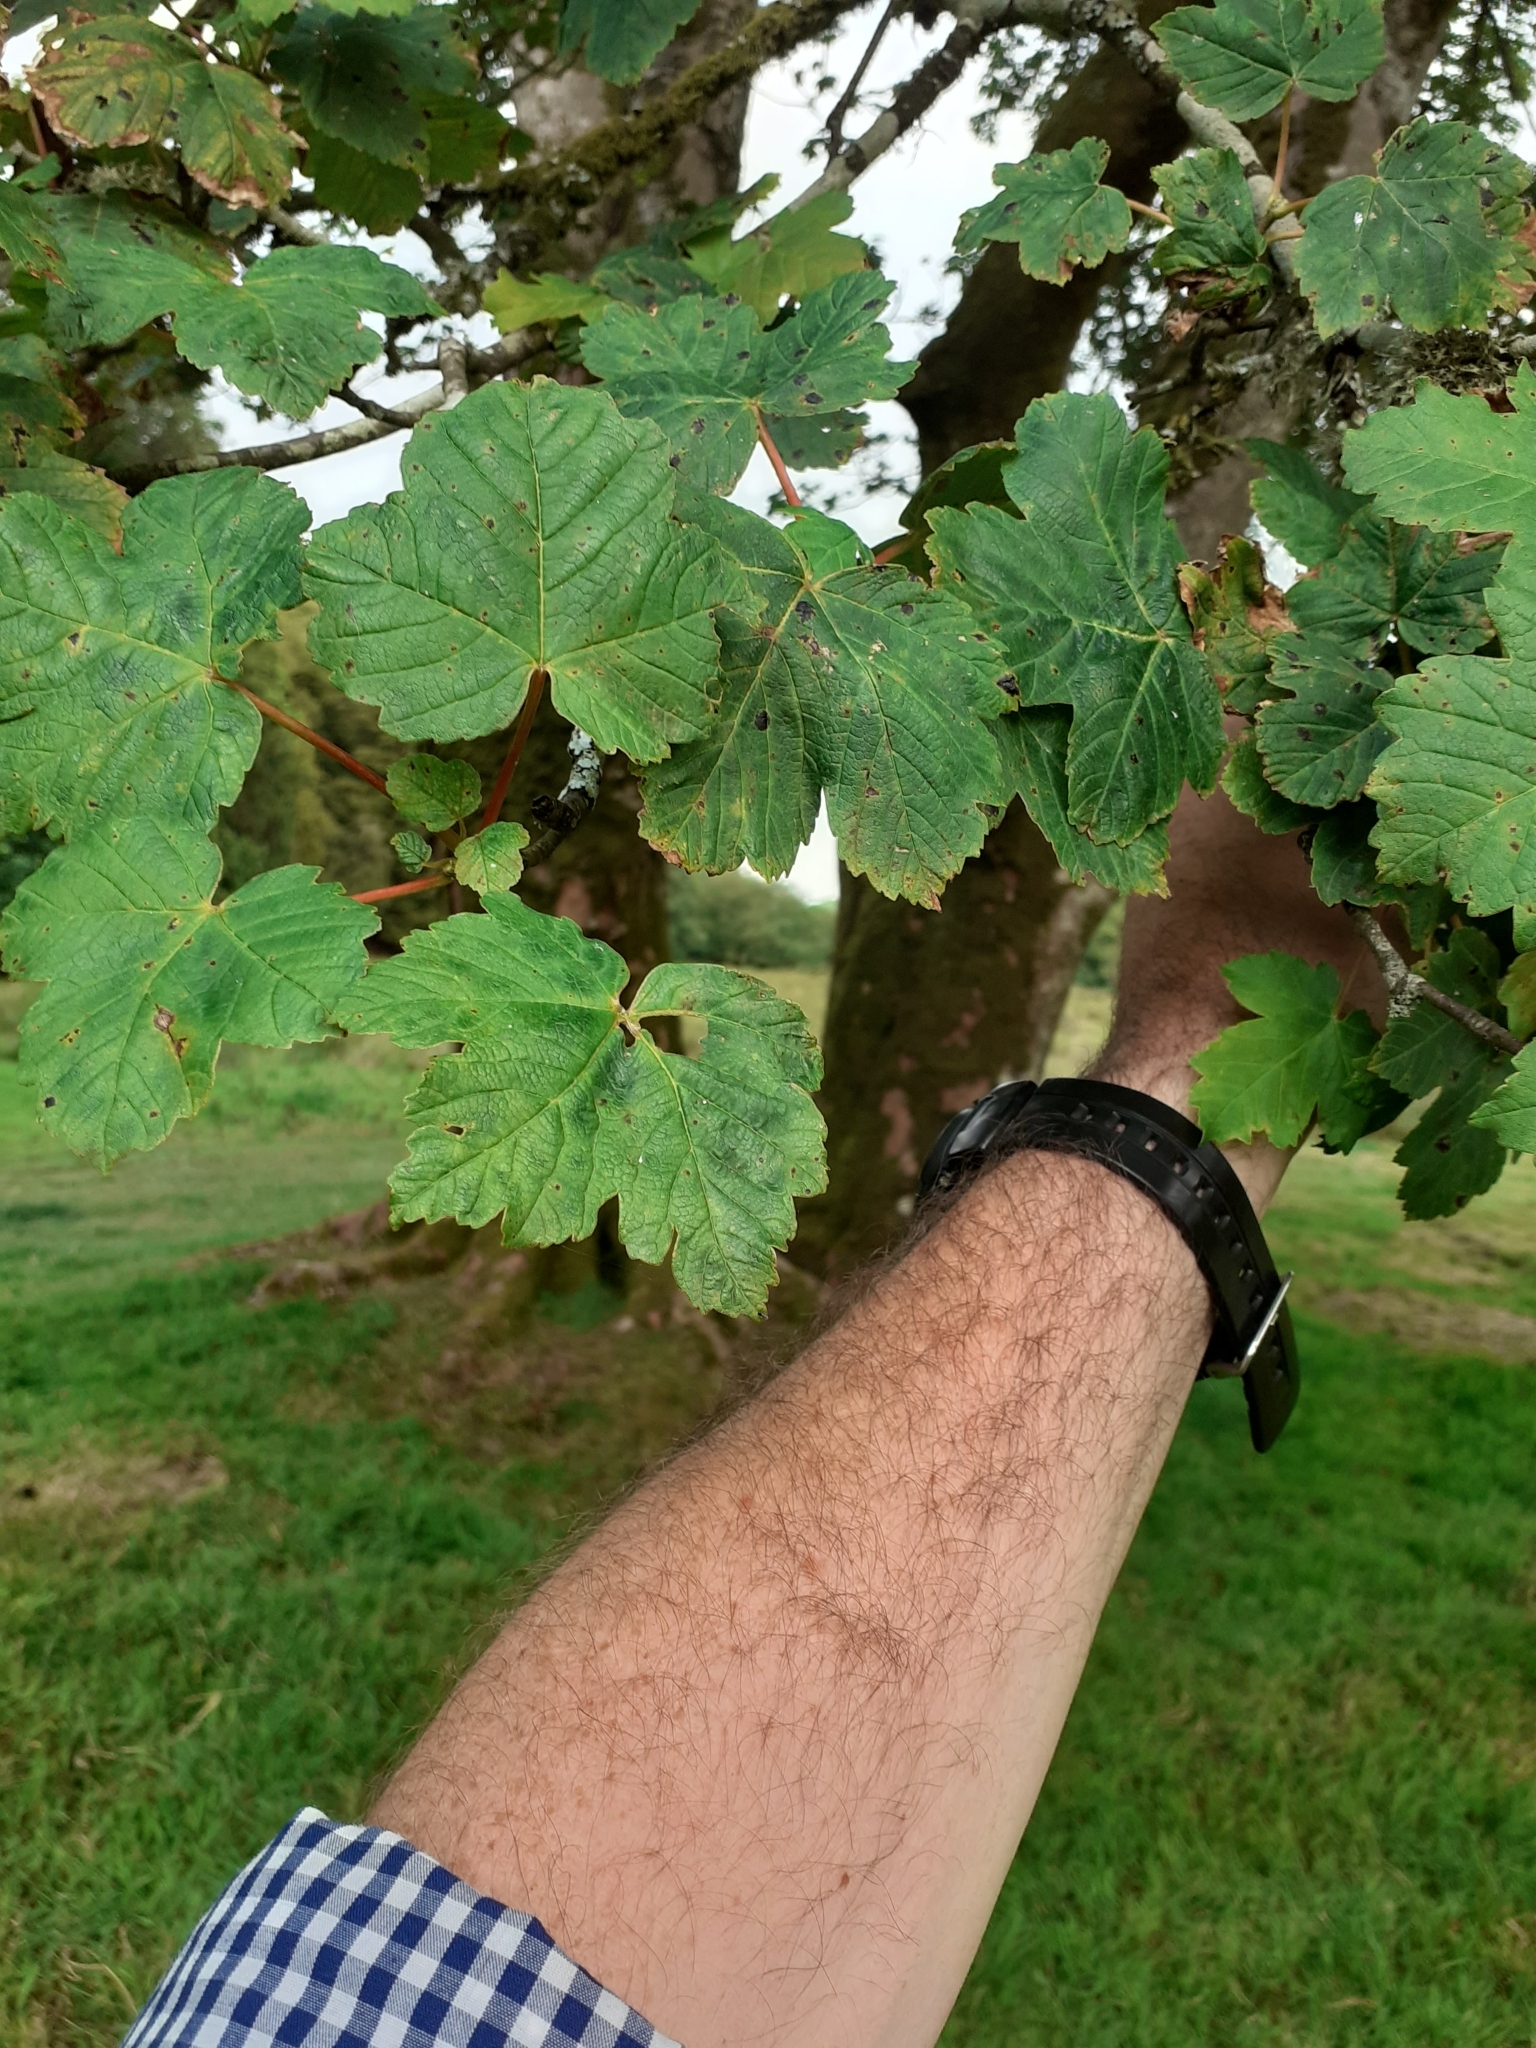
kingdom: Plantae
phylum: Tracheophyta
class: Magnoliopsida
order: Sapindales
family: Sapindaceae
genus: Acer
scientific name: Acer pseudoplatanus
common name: Sycamore
